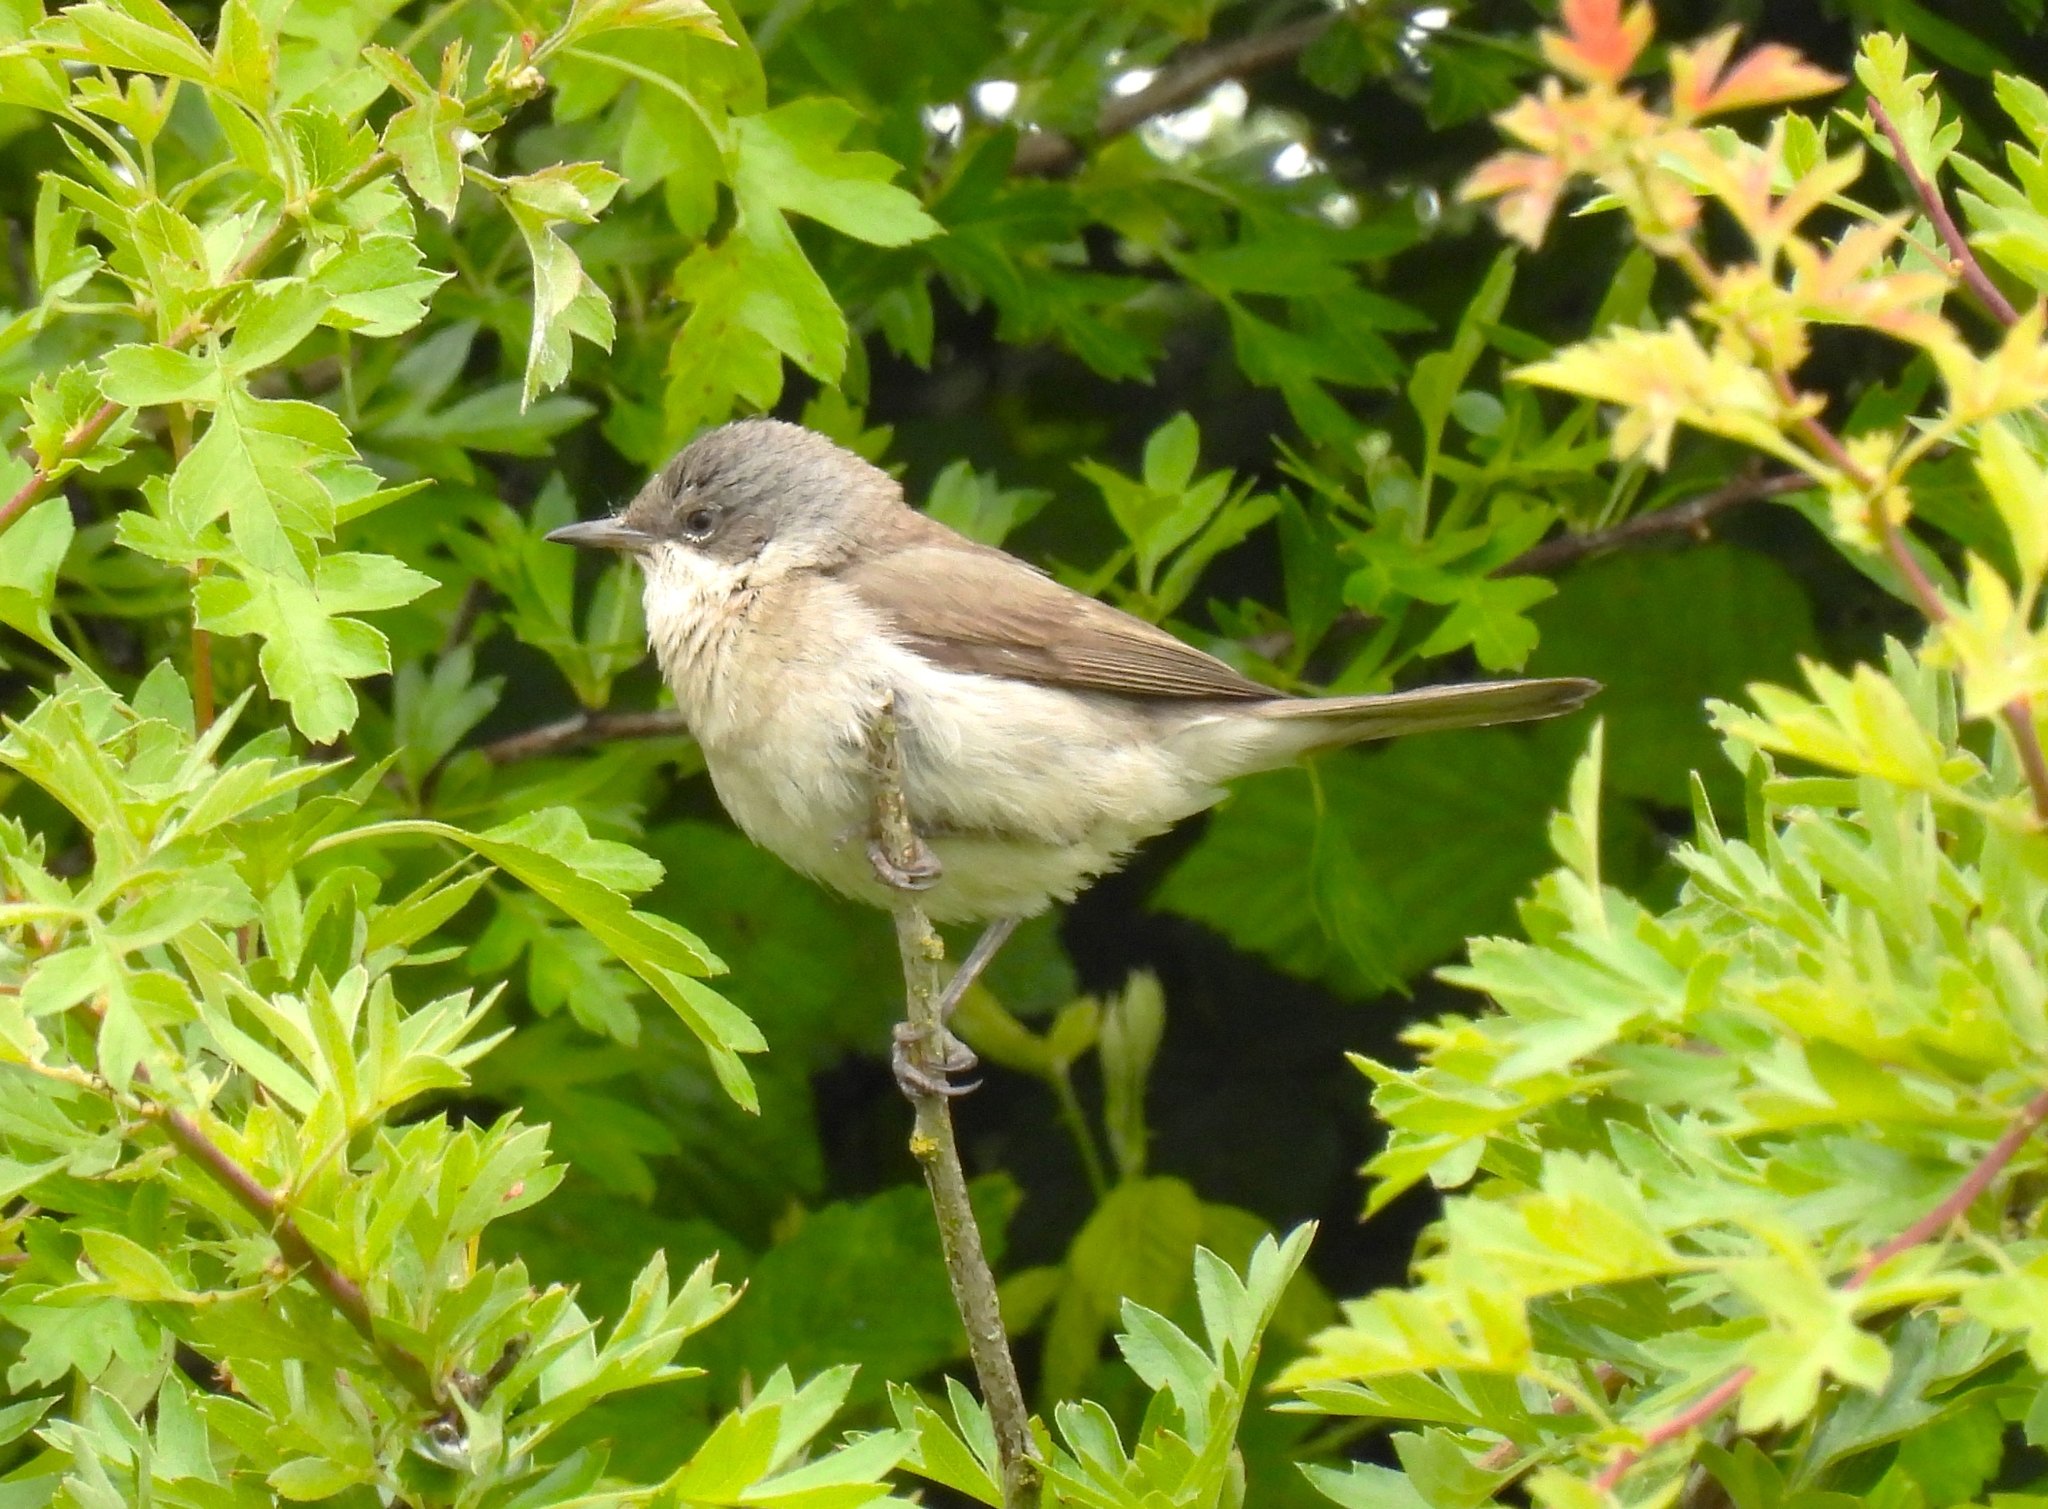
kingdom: Animalia
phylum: Chordata
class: Aves
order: Passeriformes
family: Sylviidae
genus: Sylvia
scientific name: Sylvia curruca
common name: Lesser whitethroat
